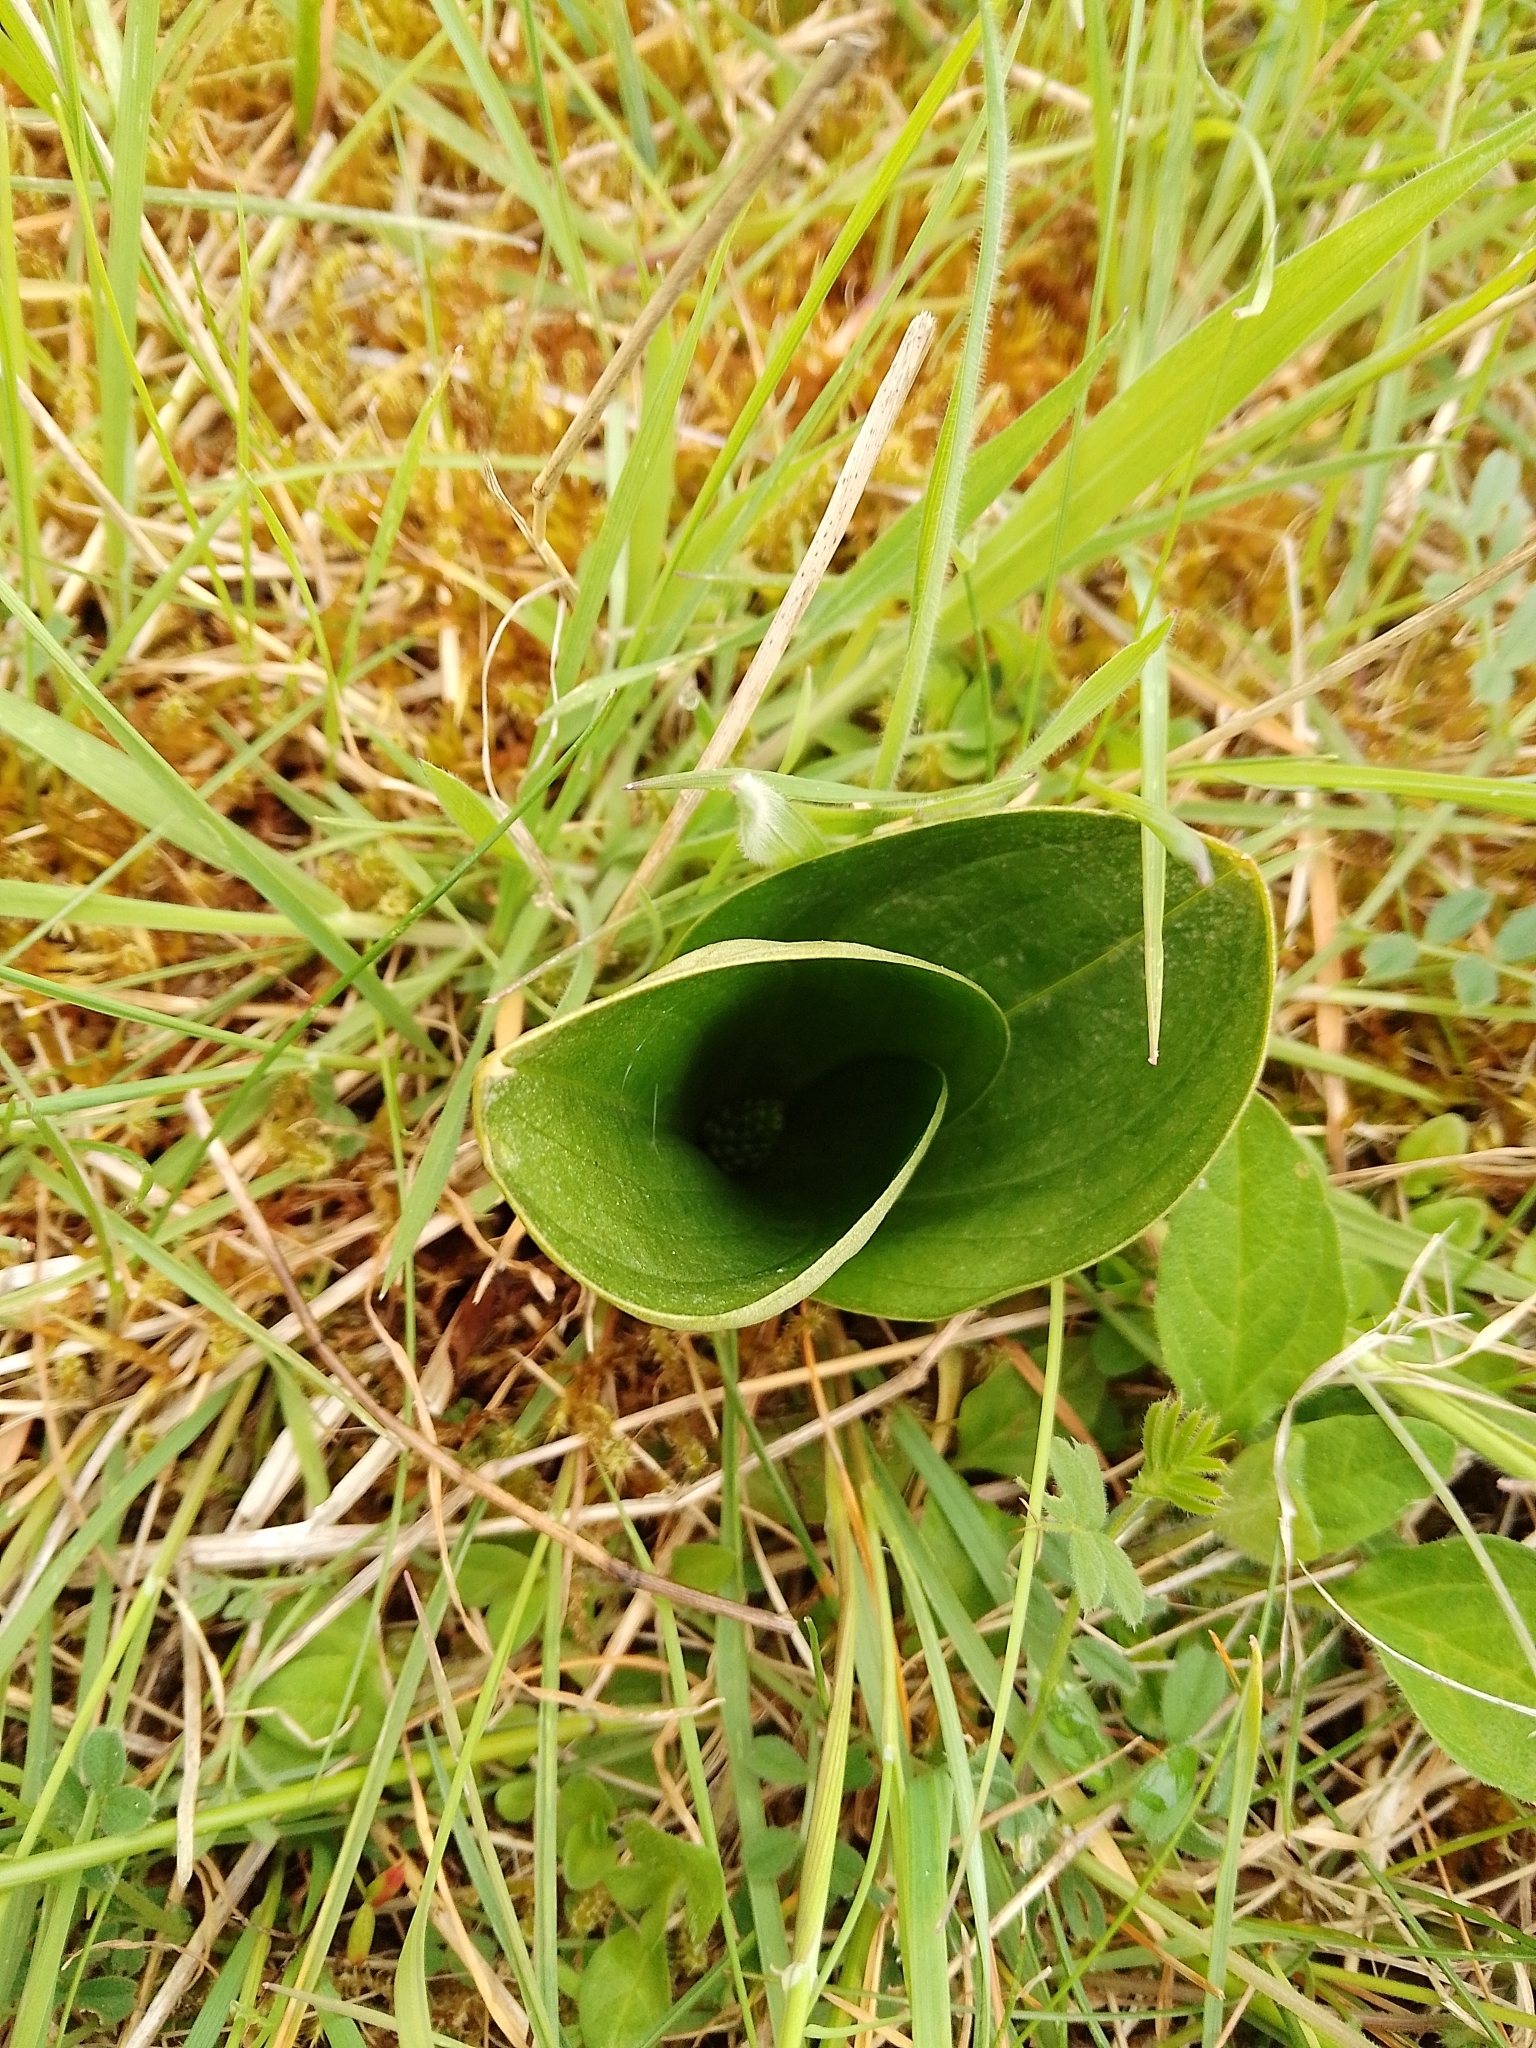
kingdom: Plantae
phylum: Tracheophyta
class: Liliopsida
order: Asparagales
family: Orchidaceae
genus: Neottia
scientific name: Neottia ovata
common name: Common twayblade
